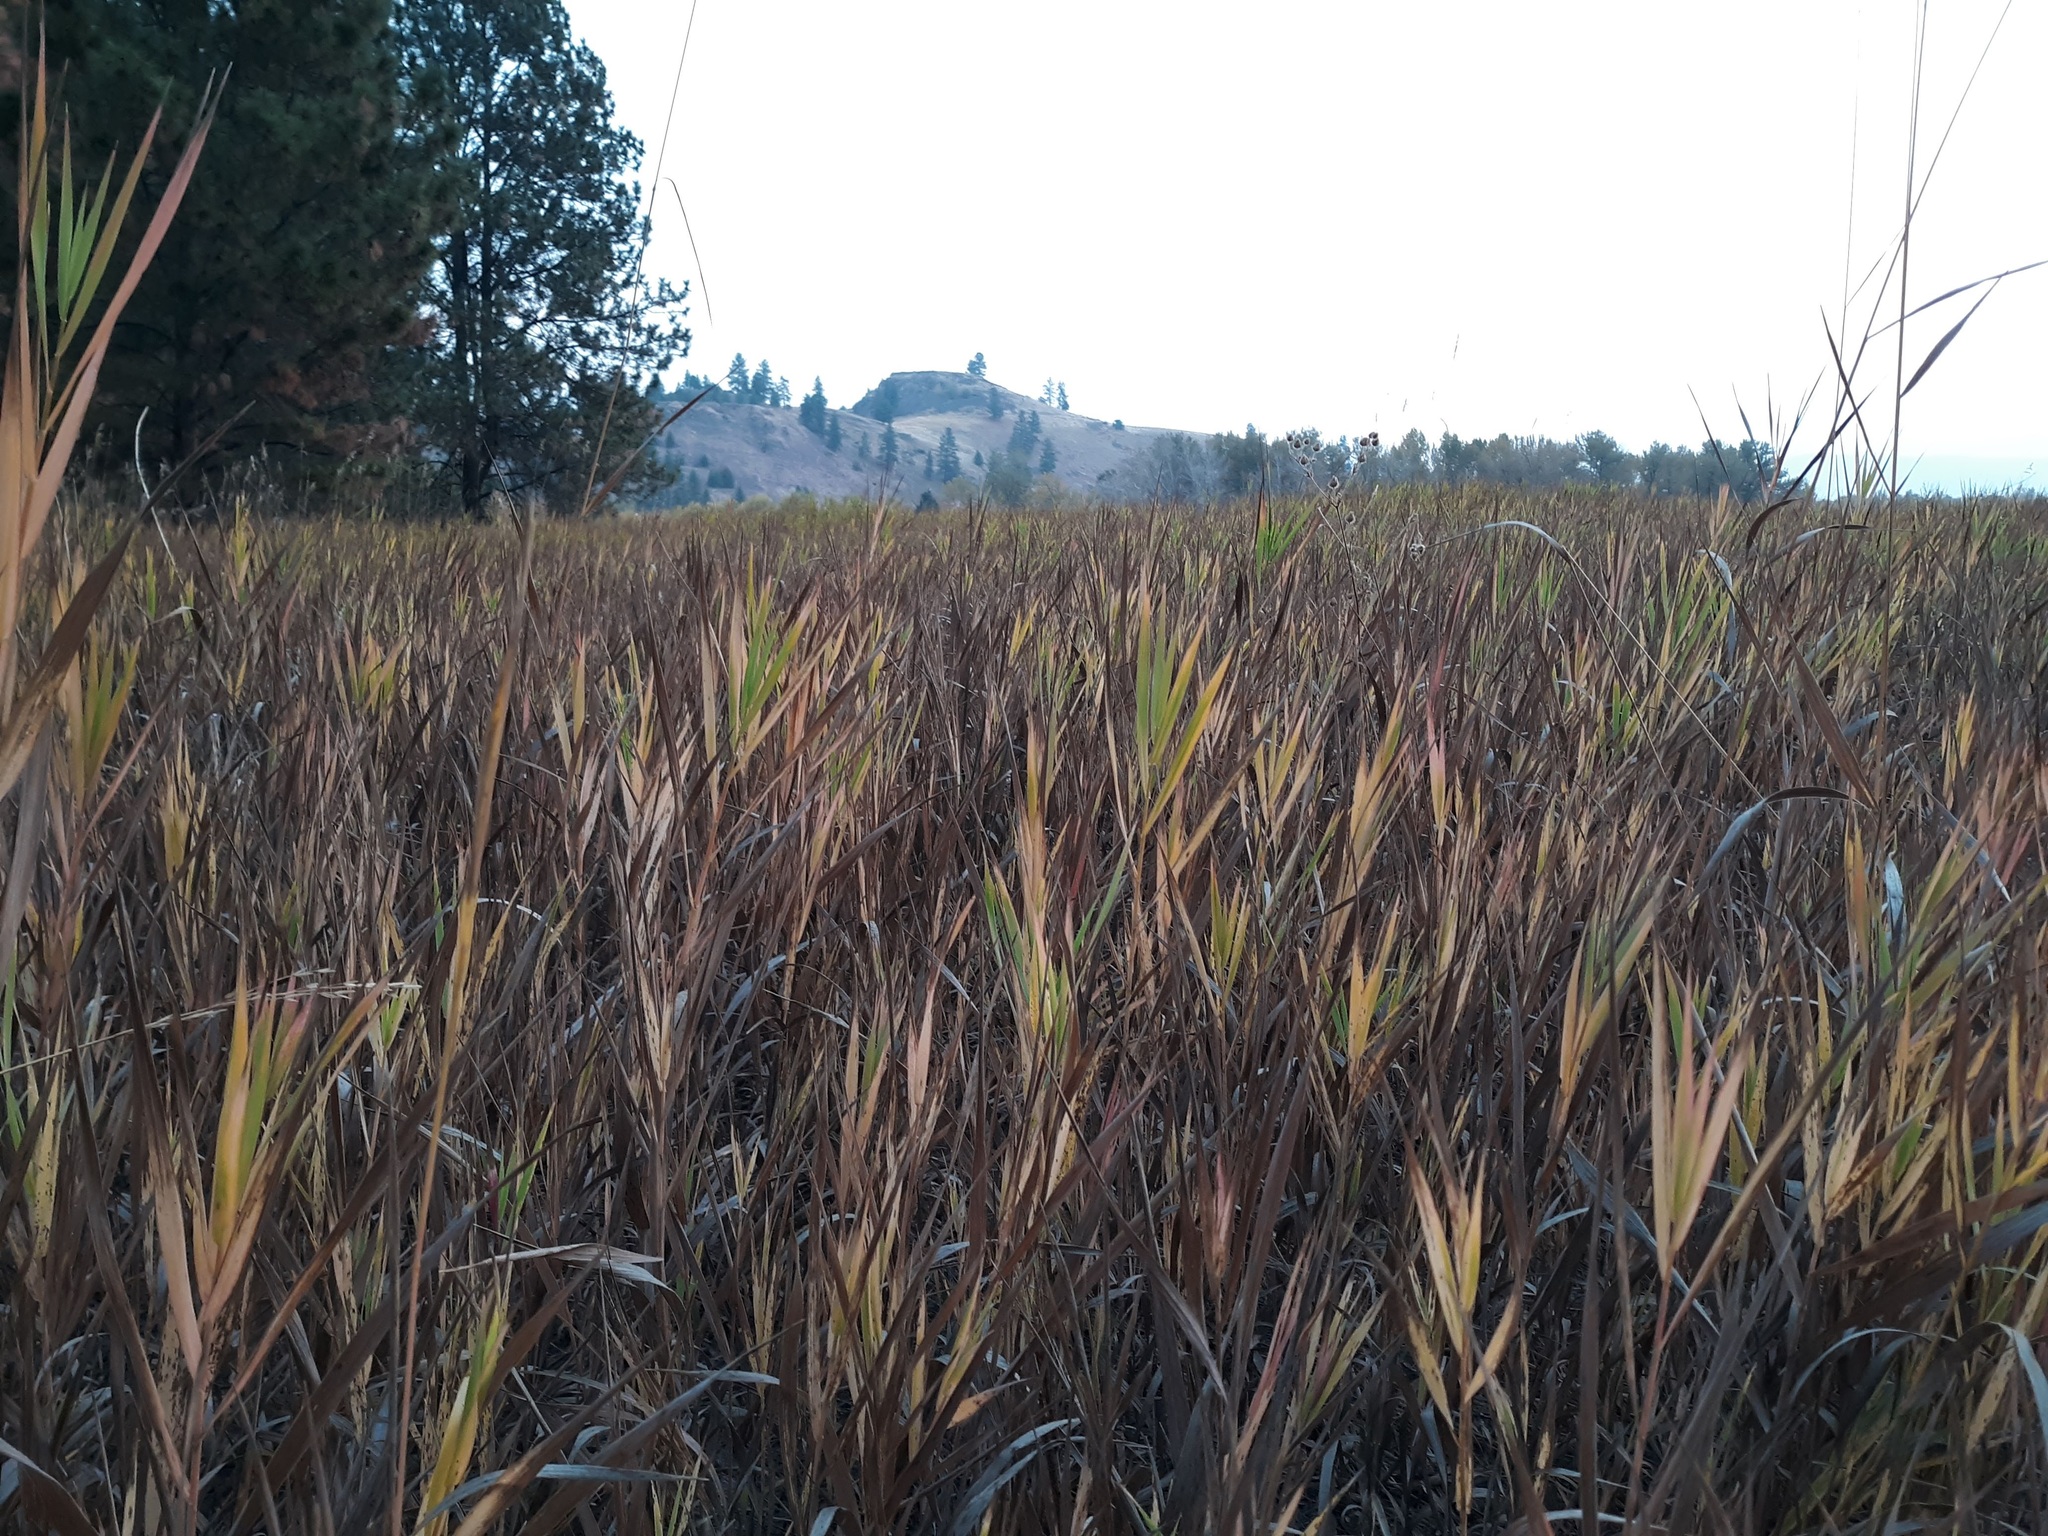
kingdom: Plantae
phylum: Tracheophyta
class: Liliopsida
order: Poales
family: Poaceae
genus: Bromus
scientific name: Bromus inermis
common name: Smooth brome
